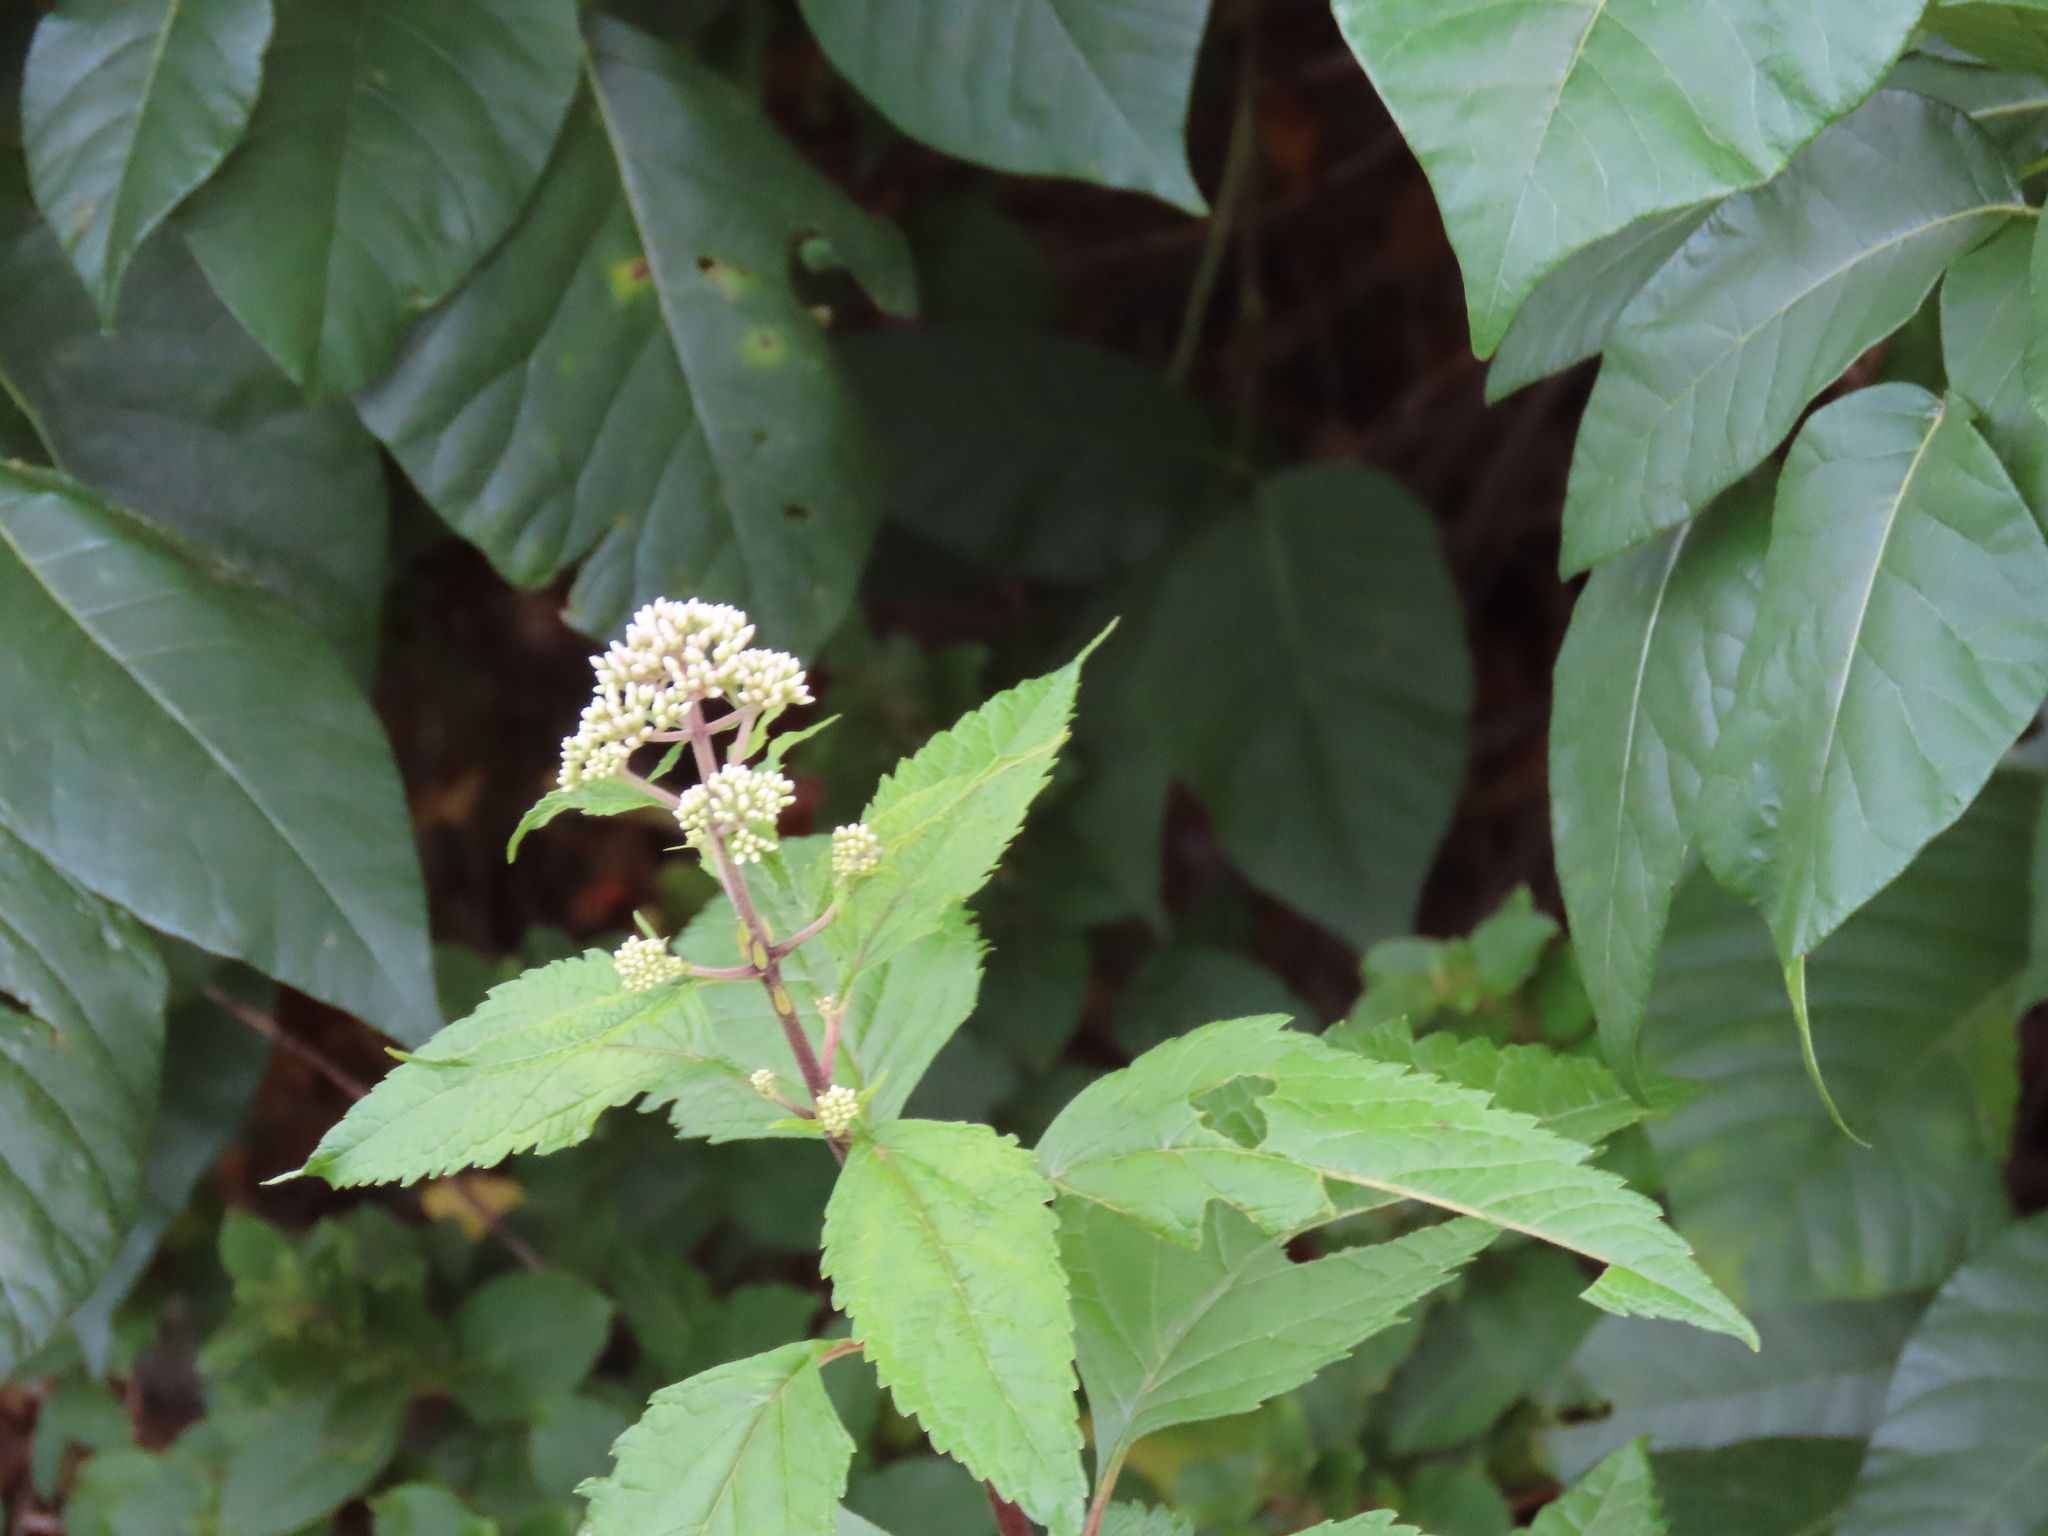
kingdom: Plantae
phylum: Tracheophyta
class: Magnoliopsida
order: Asterales
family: Asteraceae
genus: Eutrochium
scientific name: Eutrochium dubium
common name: Coastal plain joe pye weed
